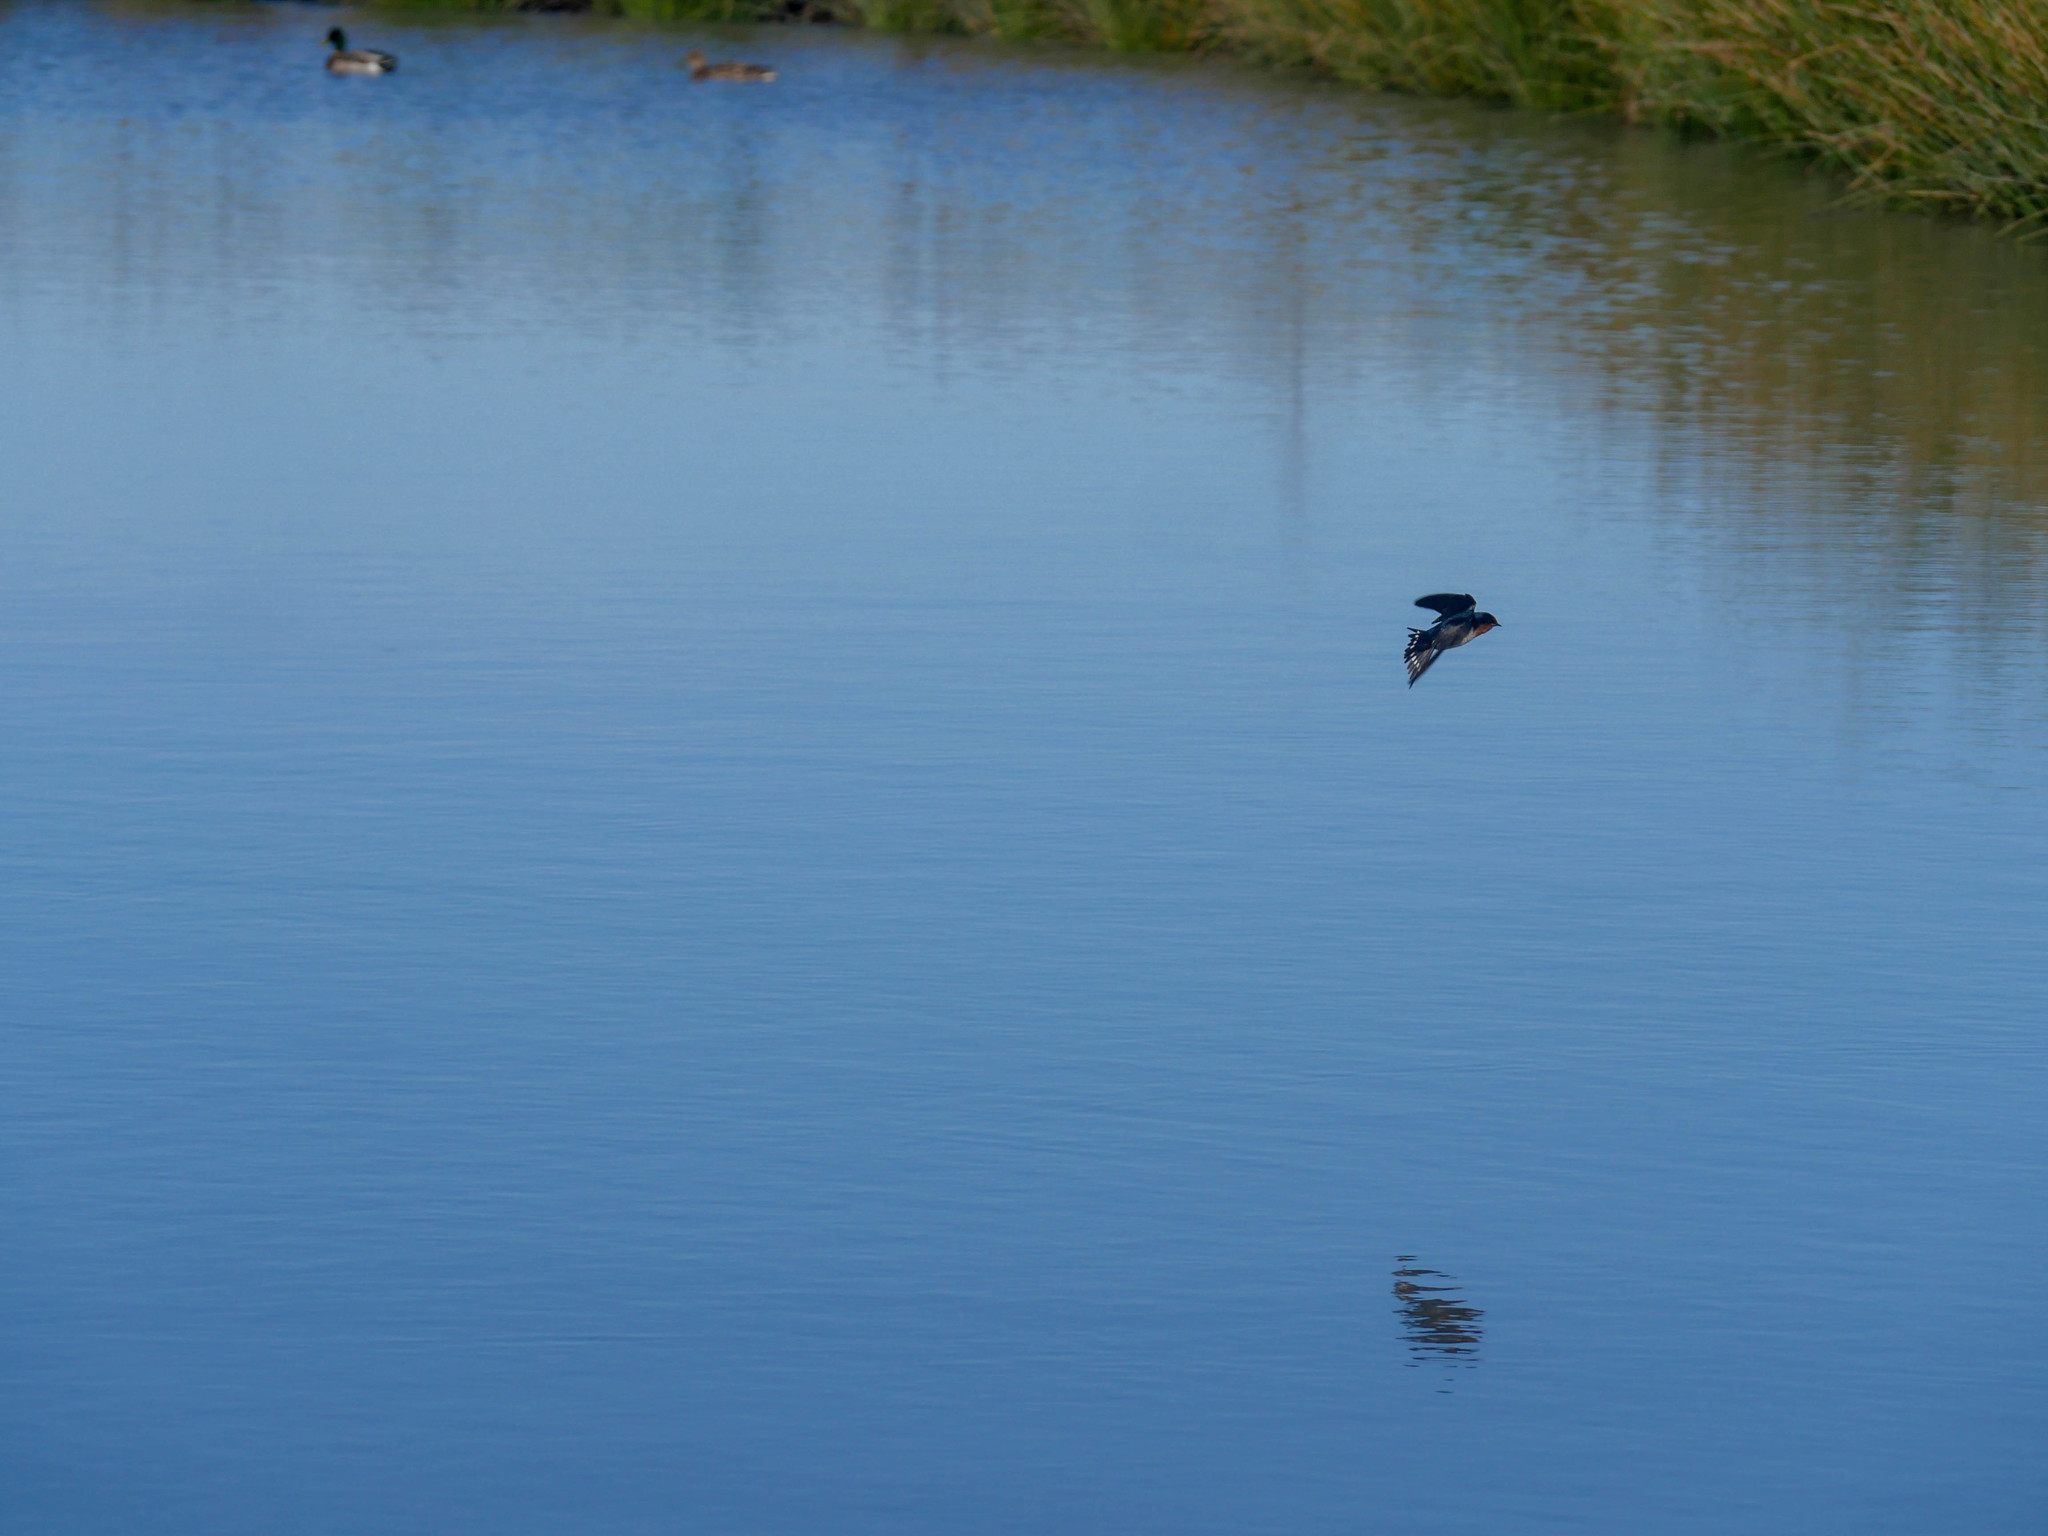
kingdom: Animalia
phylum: Chordata
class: Aves
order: Passeriformes
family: Hirundinidae
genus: Hirundo
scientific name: Hirundo neoxena
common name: Welcome swallow
